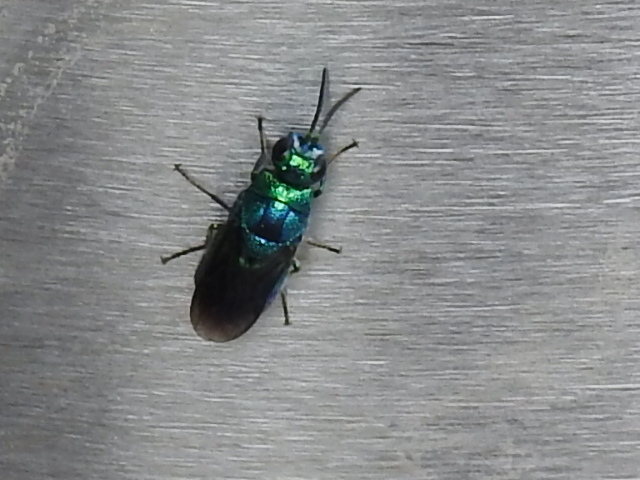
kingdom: Animalia
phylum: Arthropoda
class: Insecta
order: Hymenoptera
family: Chrysididae
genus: Chrysis
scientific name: Chrysis angolensis
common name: Cuckoo wasp
